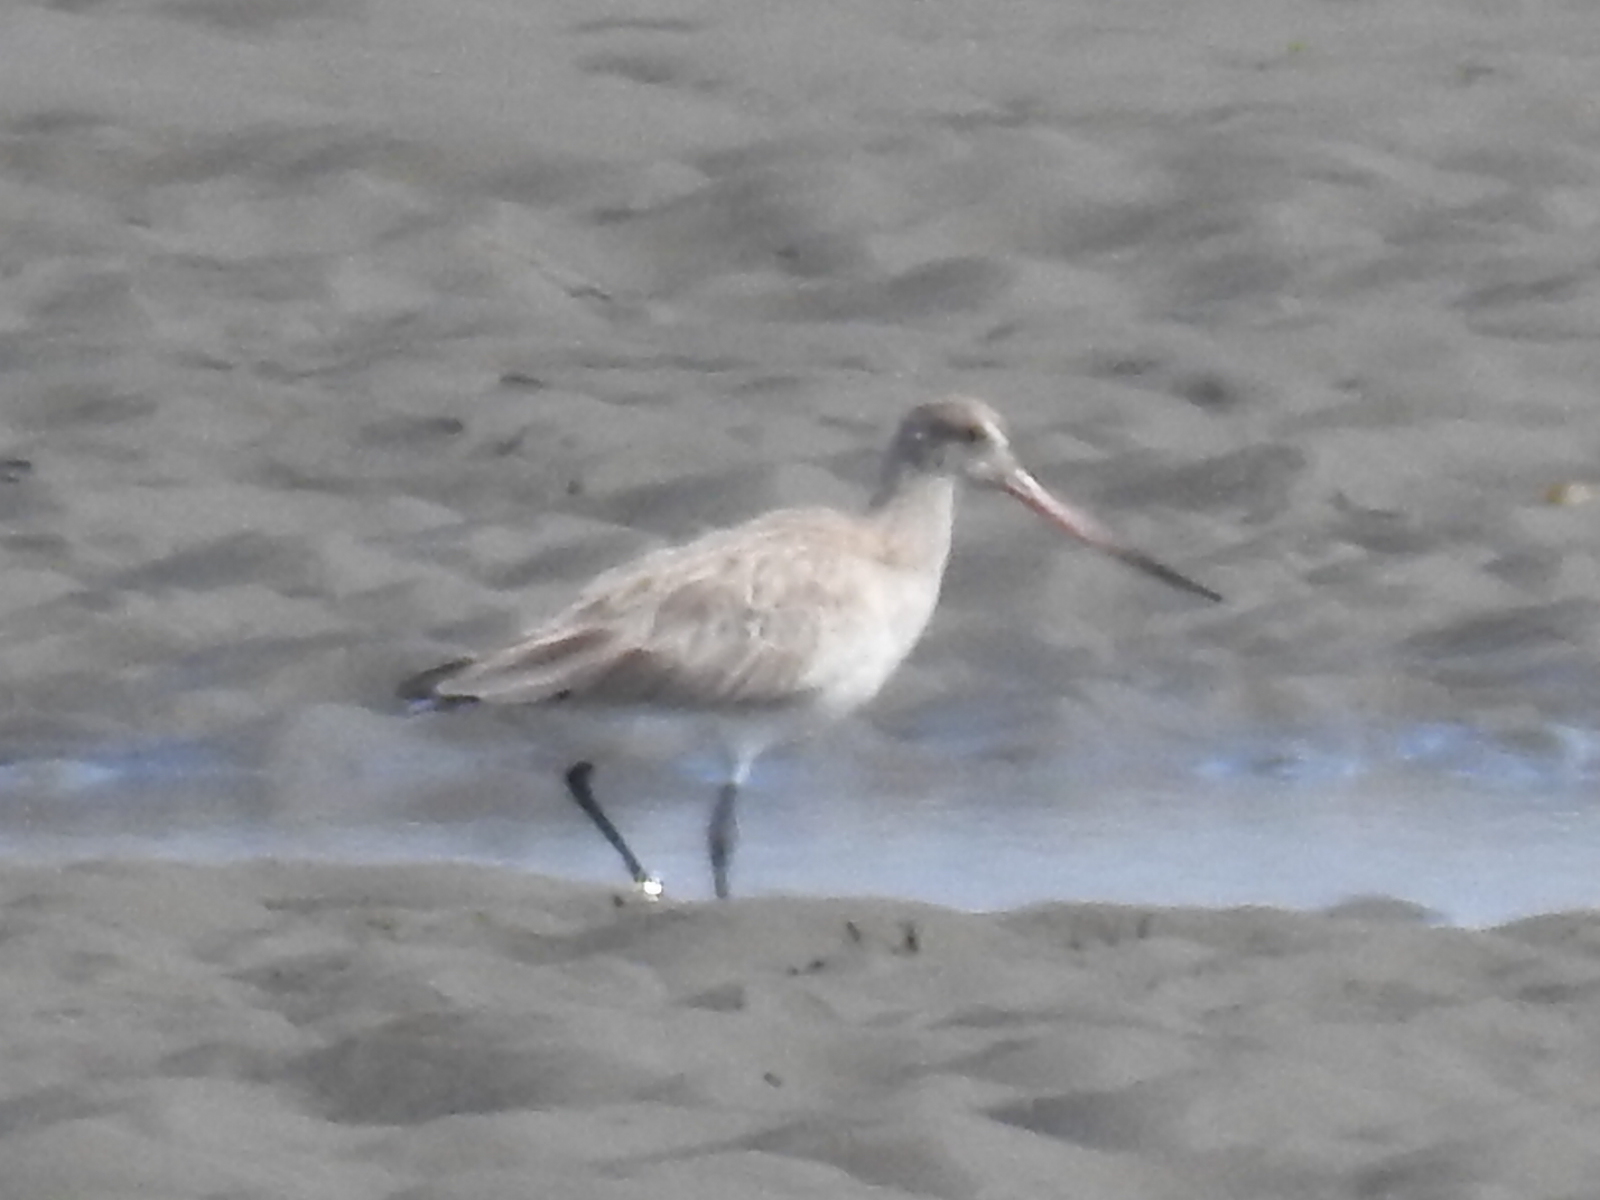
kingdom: Animalia
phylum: Chordata
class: Aves
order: Charadriiformes
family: Scolopacidae
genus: Limosa
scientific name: Limosa lapponica
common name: Bar-tailed godwit
